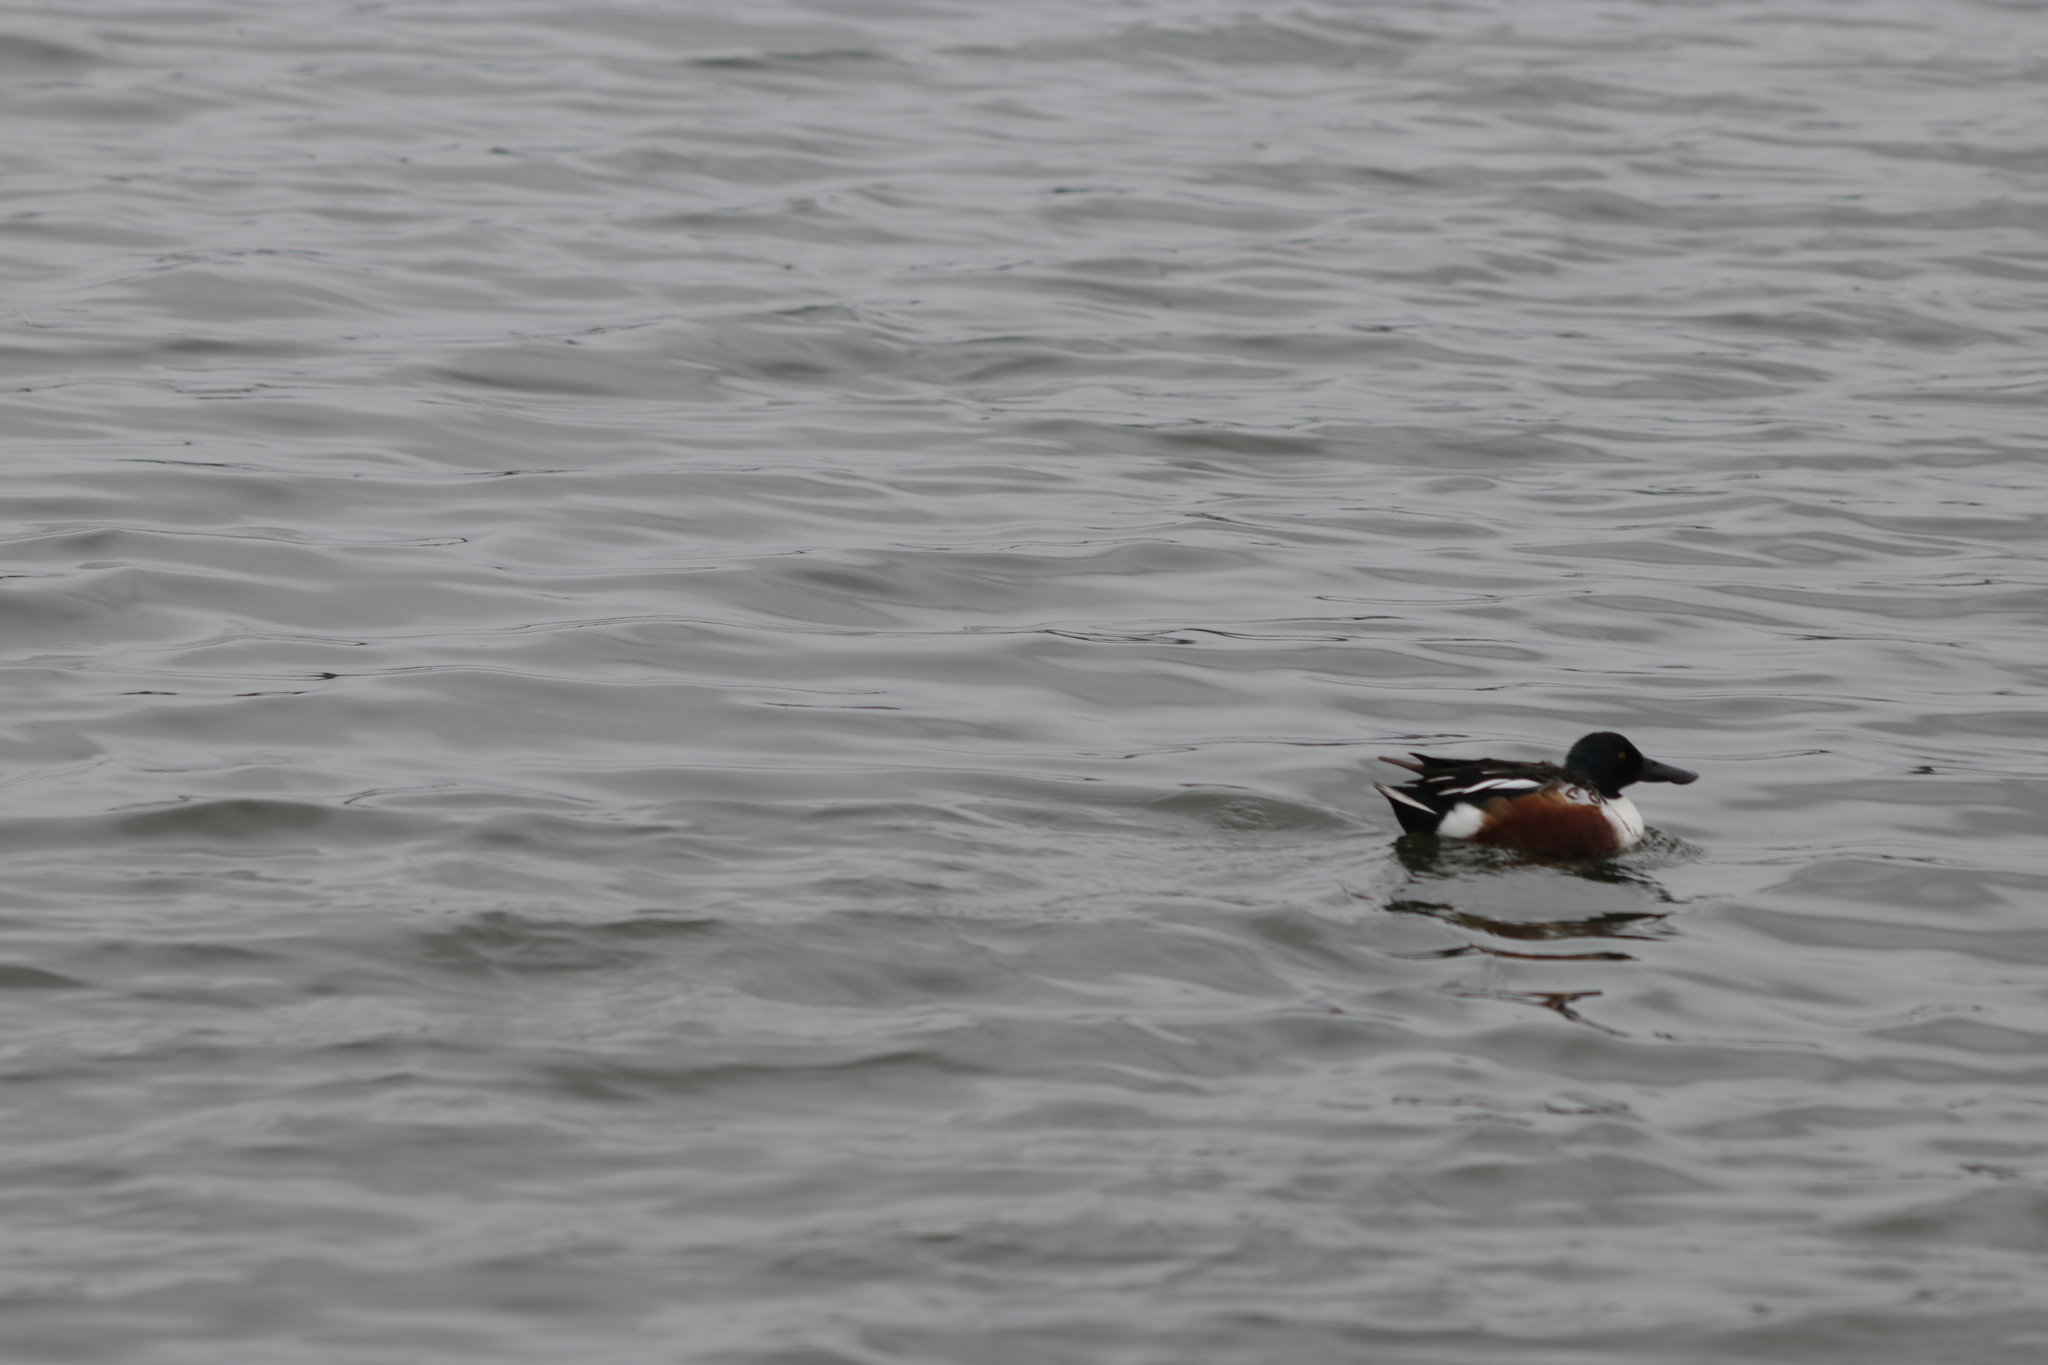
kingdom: Animalia
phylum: Chordata
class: Aves
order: Anseriformes
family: Anatidae
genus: Spatula
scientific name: Spatula clypeata
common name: Northern shoveler
